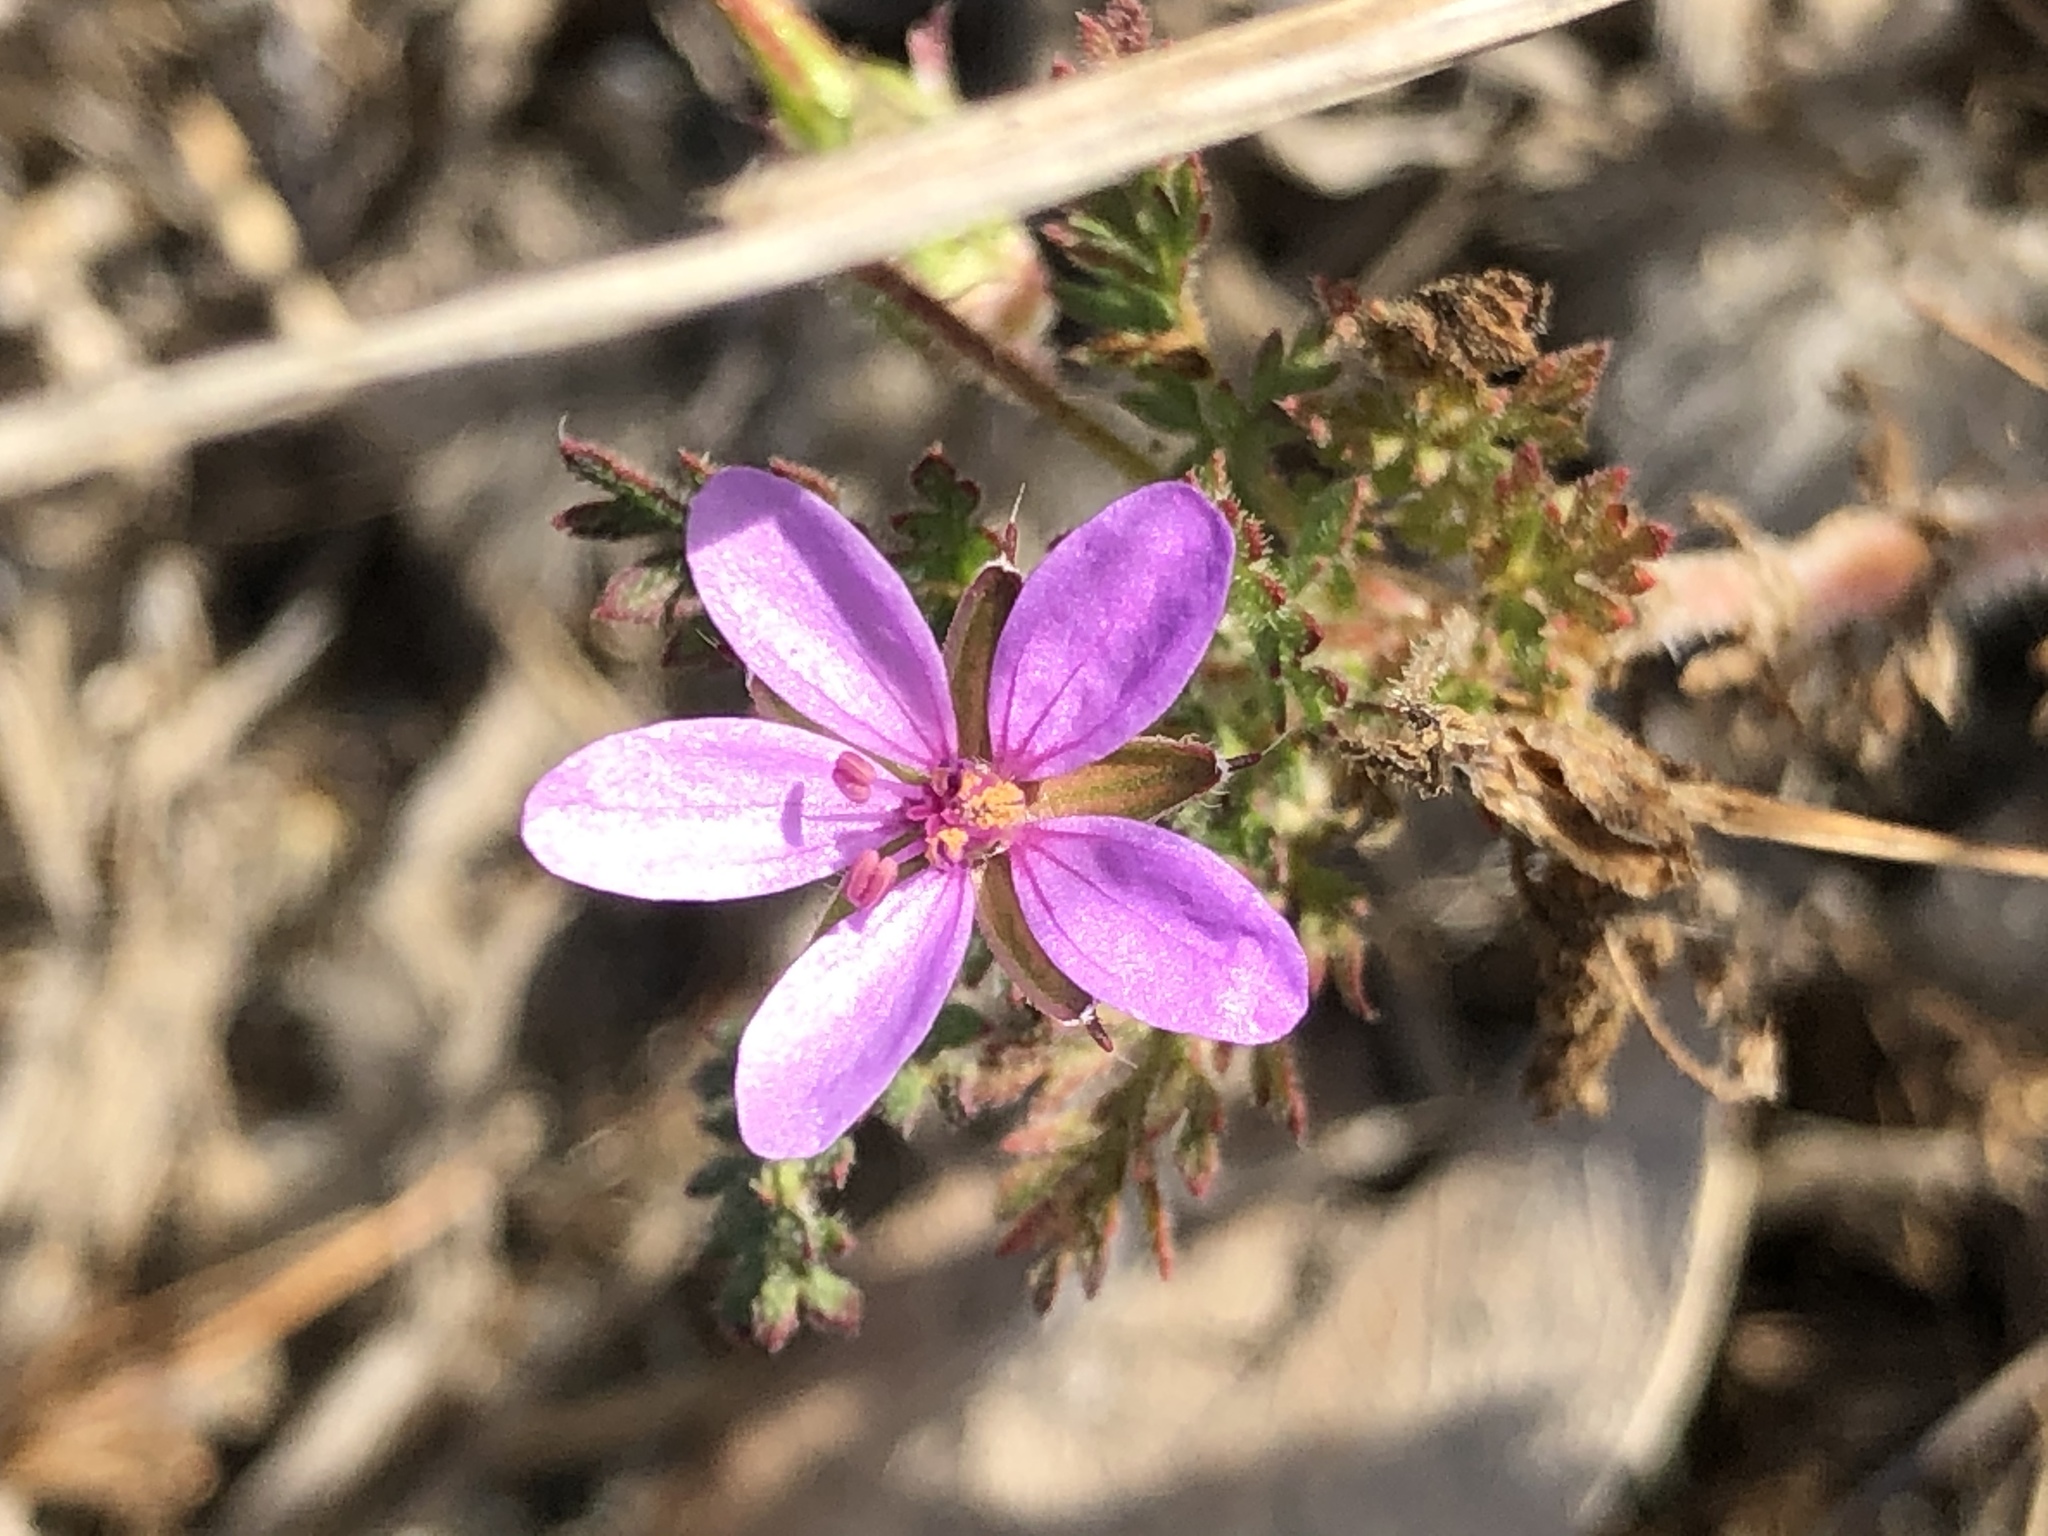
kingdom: Plantae
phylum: Tracheophyta
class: Magnoliopsida
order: Geraniales
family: Geraniaceae
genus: Erodium
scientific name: Erodium cicutarium
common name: Common stork's-bill
